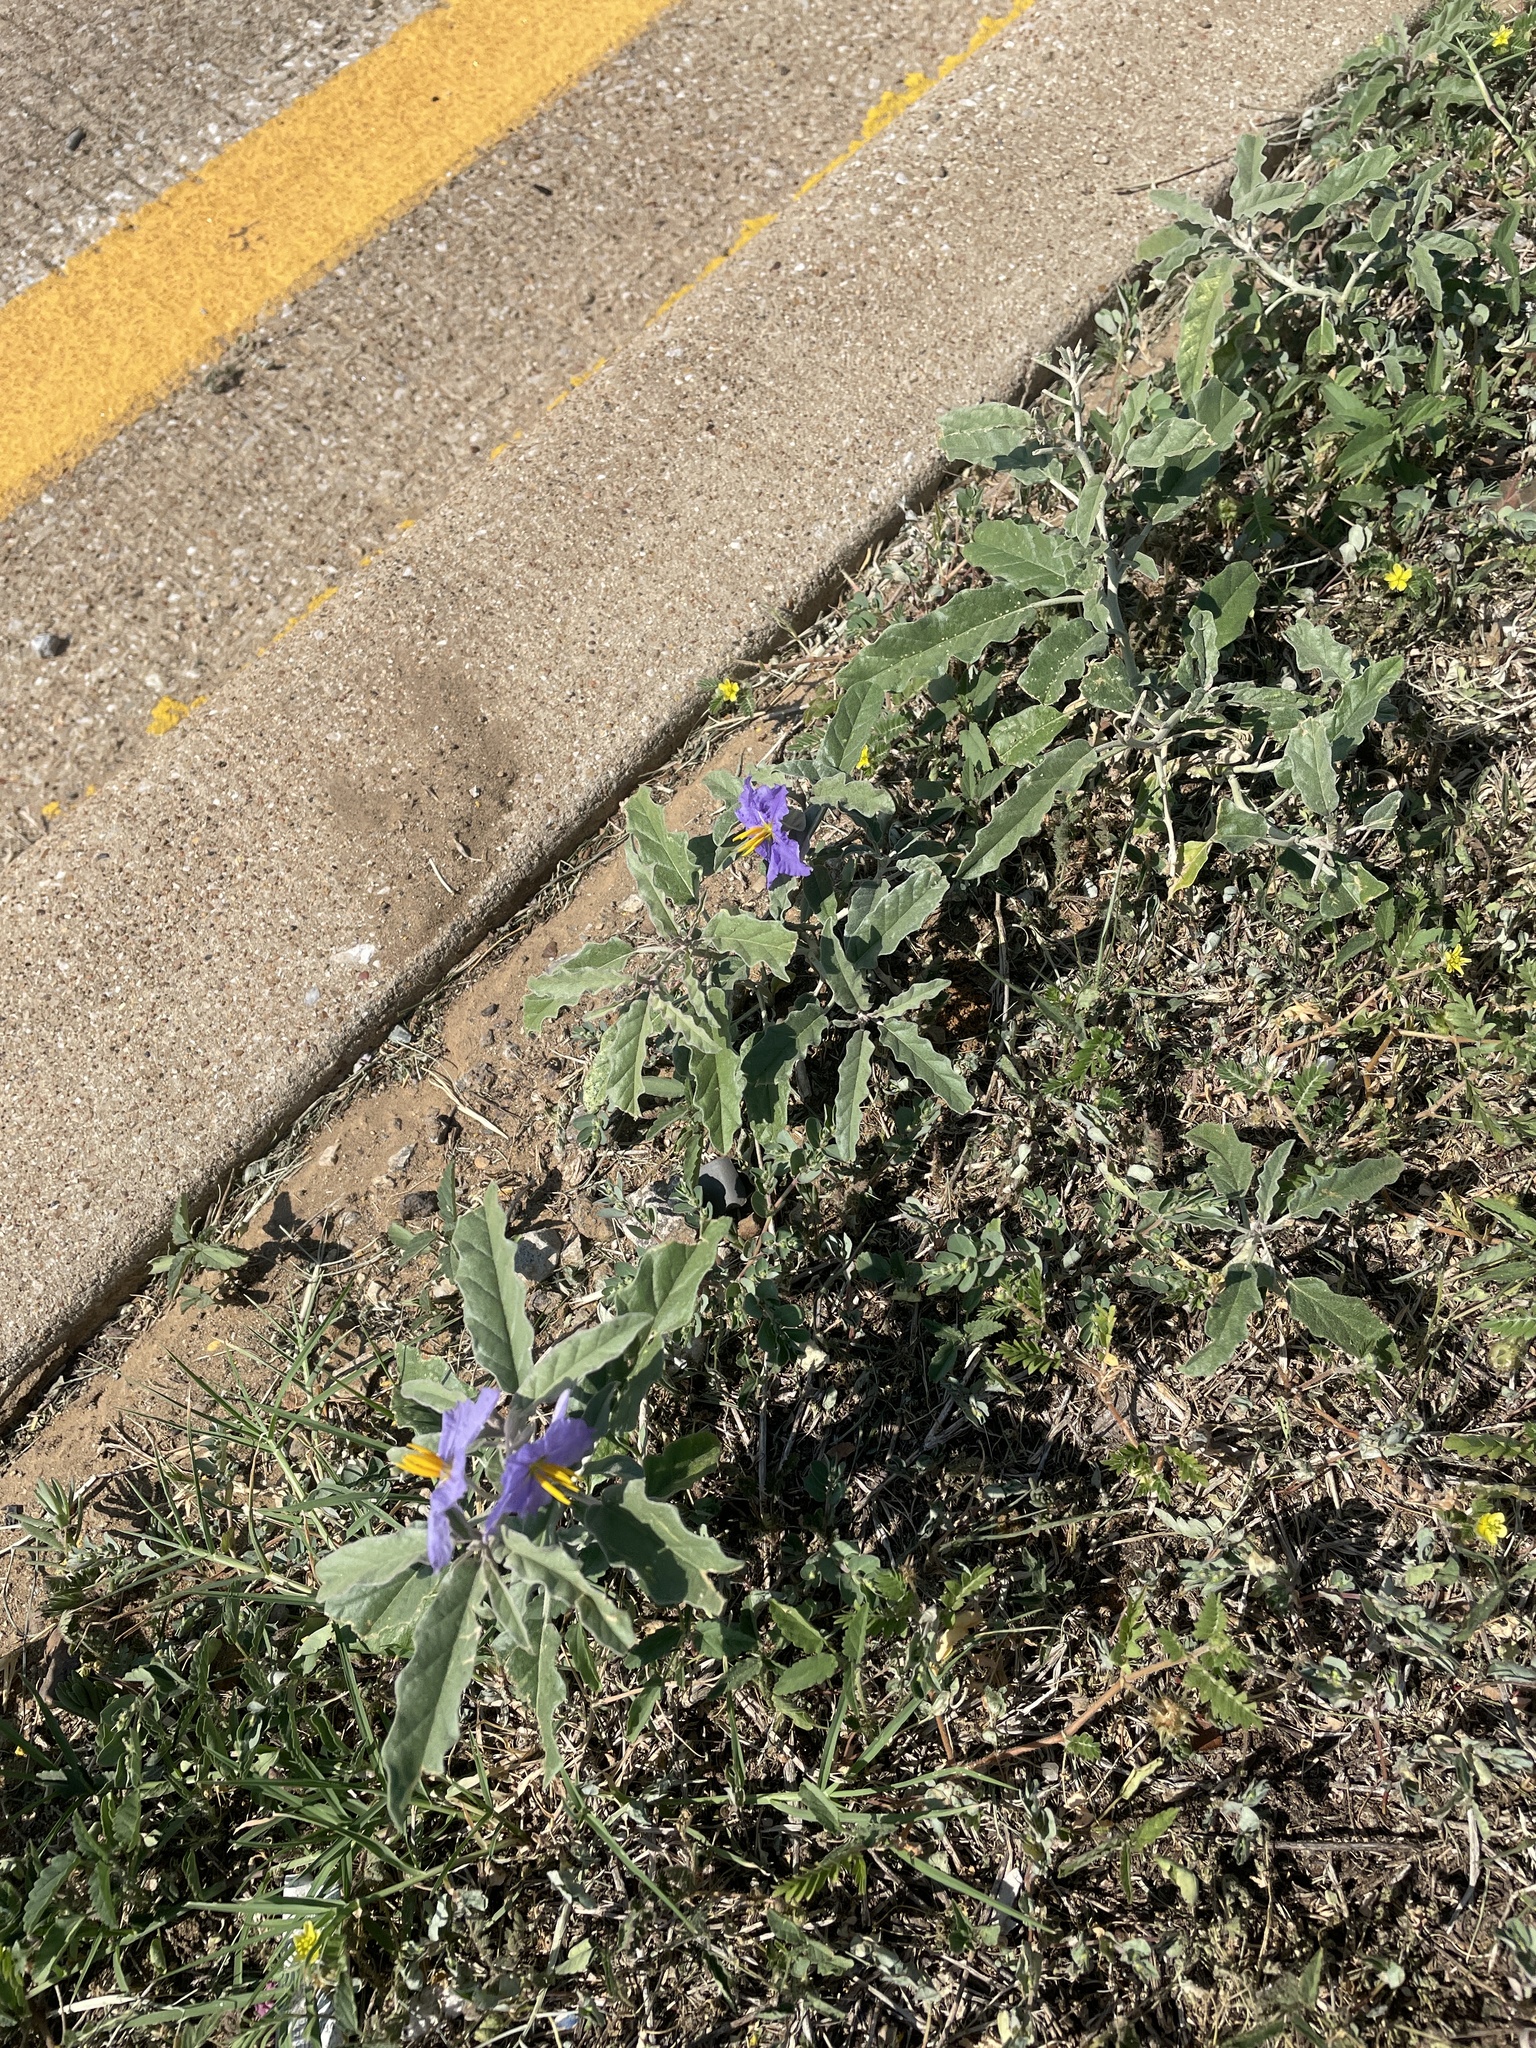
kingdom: Plantae
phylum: Tracheophyta
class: Magnoliopsida
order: Solanales
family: Solanaceae
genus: Solanum
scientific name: Solanum elaeagnifolium
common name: Silverleaf nightshade
